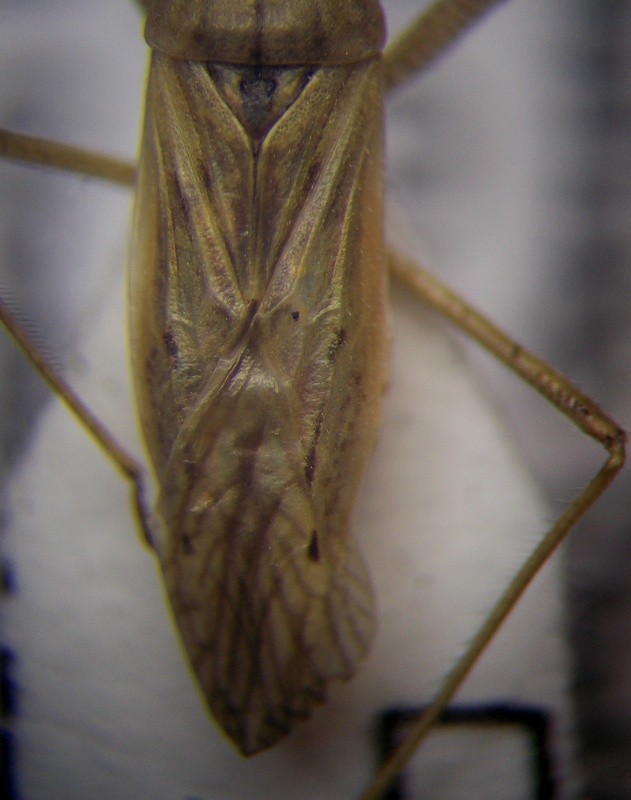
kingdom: Animalia
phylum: Arthropoda
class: Insecta
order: Hemiptera
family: Nabidae
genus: Nabis
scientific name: Nabis pseudoferus
